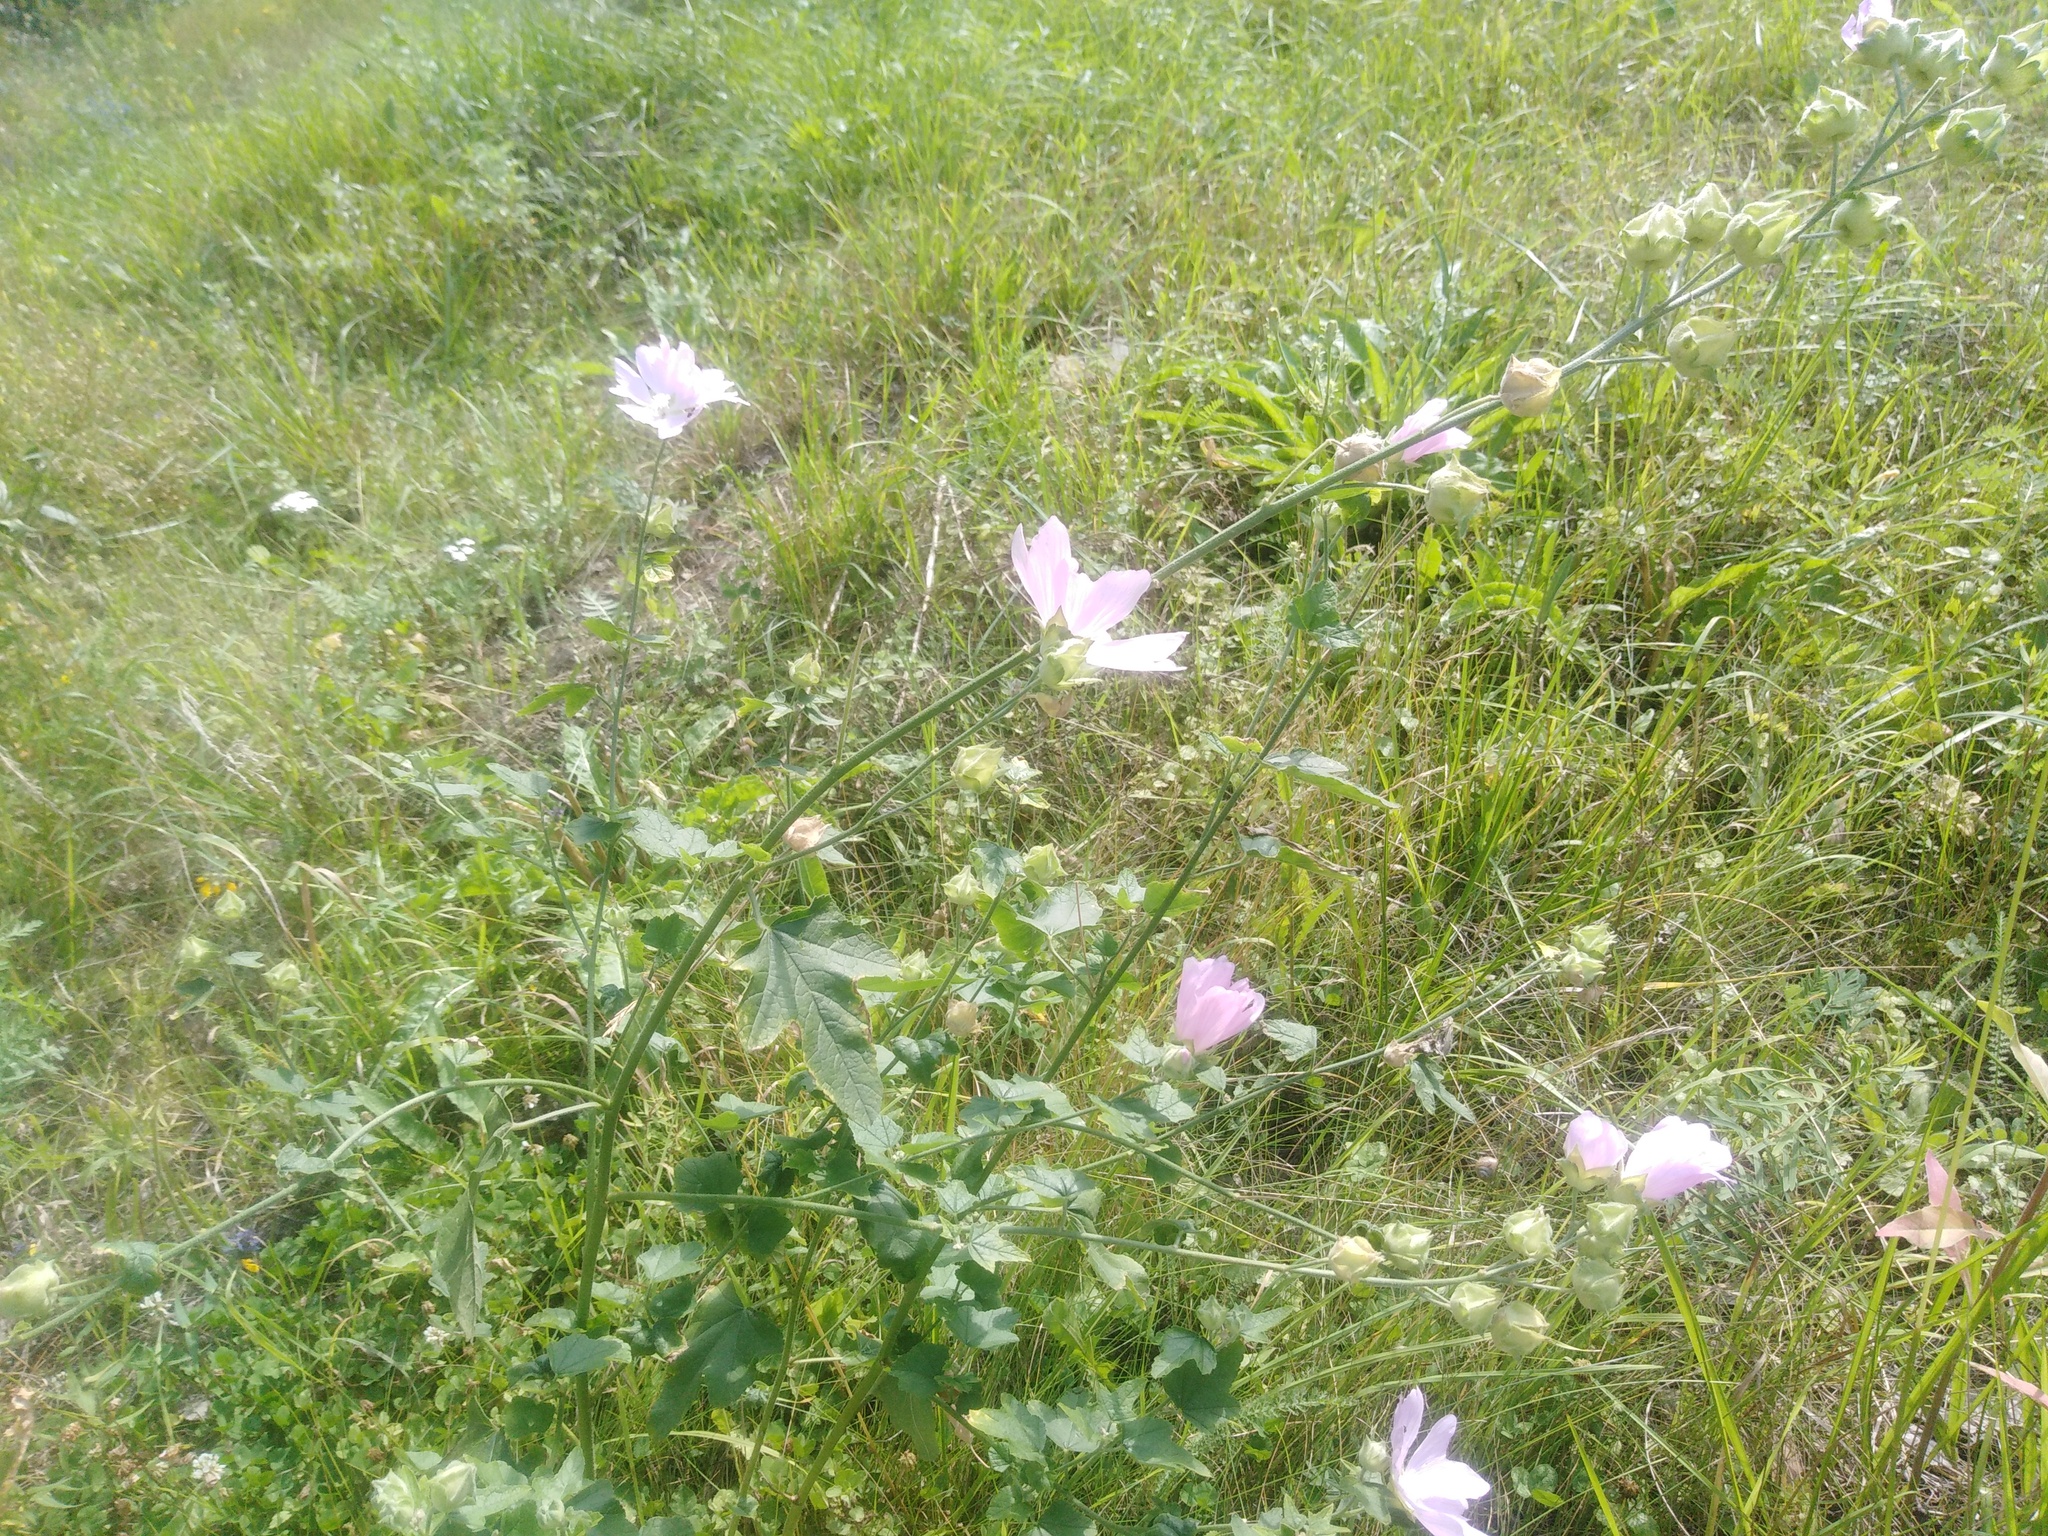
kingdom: Plantae
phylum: Tracheophyta
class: Magnoliopsida
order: Malvales
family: Malvaceae
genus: Malva
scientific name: Malva thuringiaca
